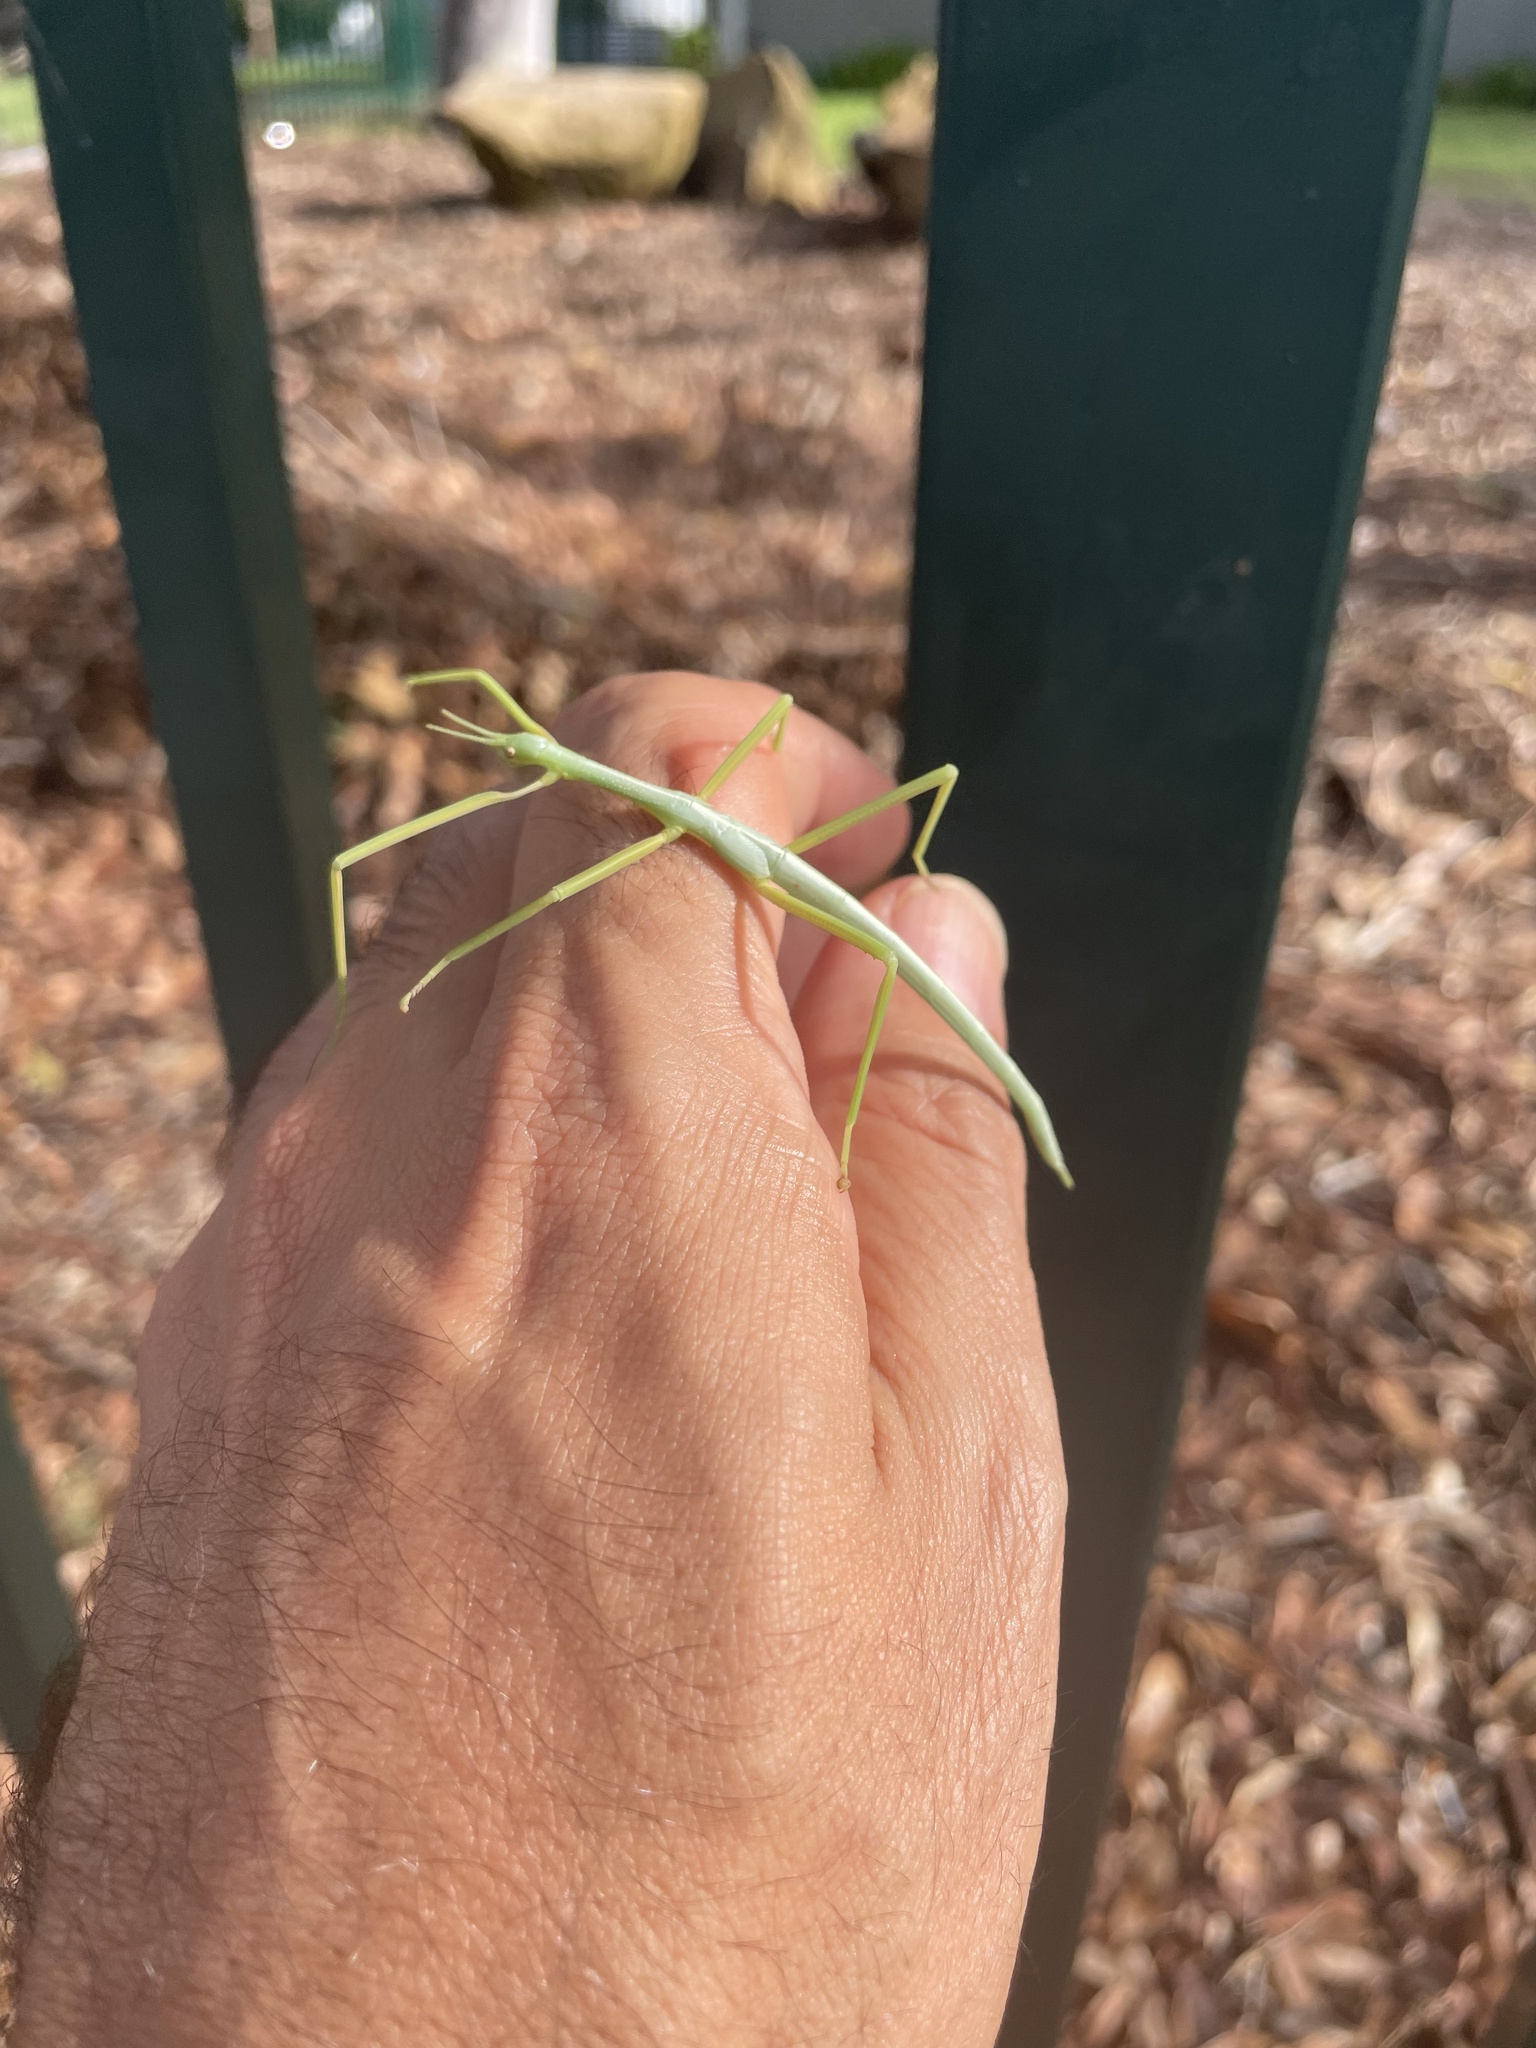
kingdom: Animalia
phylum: Arthropoda
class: Insecta
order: Phasmida
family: Phasmatidae
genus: Didymuria
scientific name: Didymuria violescens
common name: Spur-legged stick-insect
